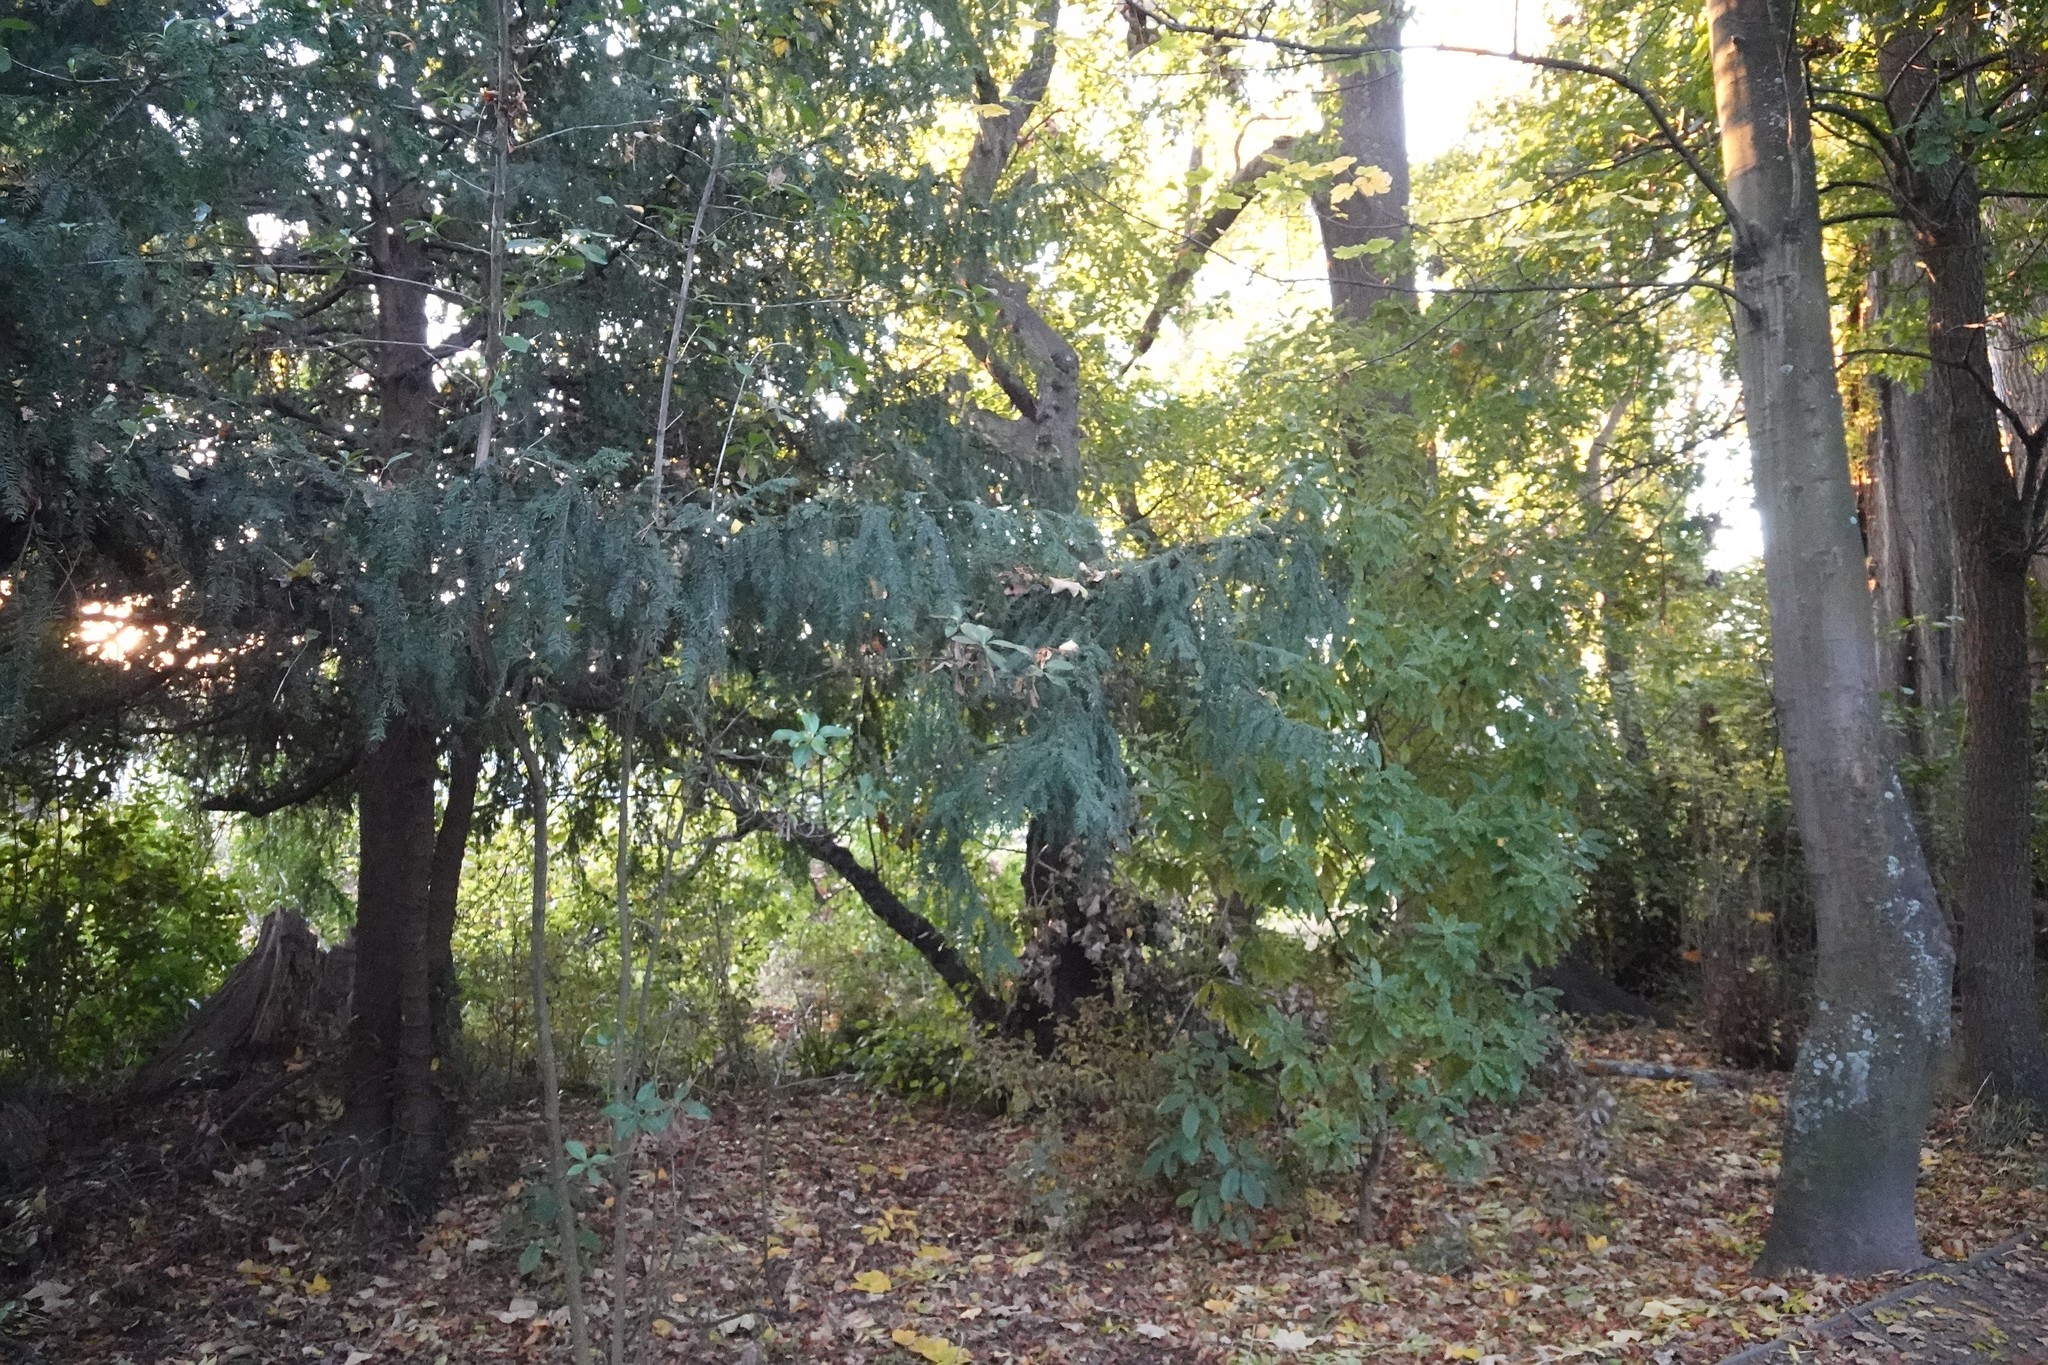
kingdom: Plantae
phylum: Tracheophyta
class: Magnoliopsida
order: Apiales
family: Pittosporaceae
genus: Pittosporum
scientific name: Pittosporum eugenioides
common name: Lemonwood
